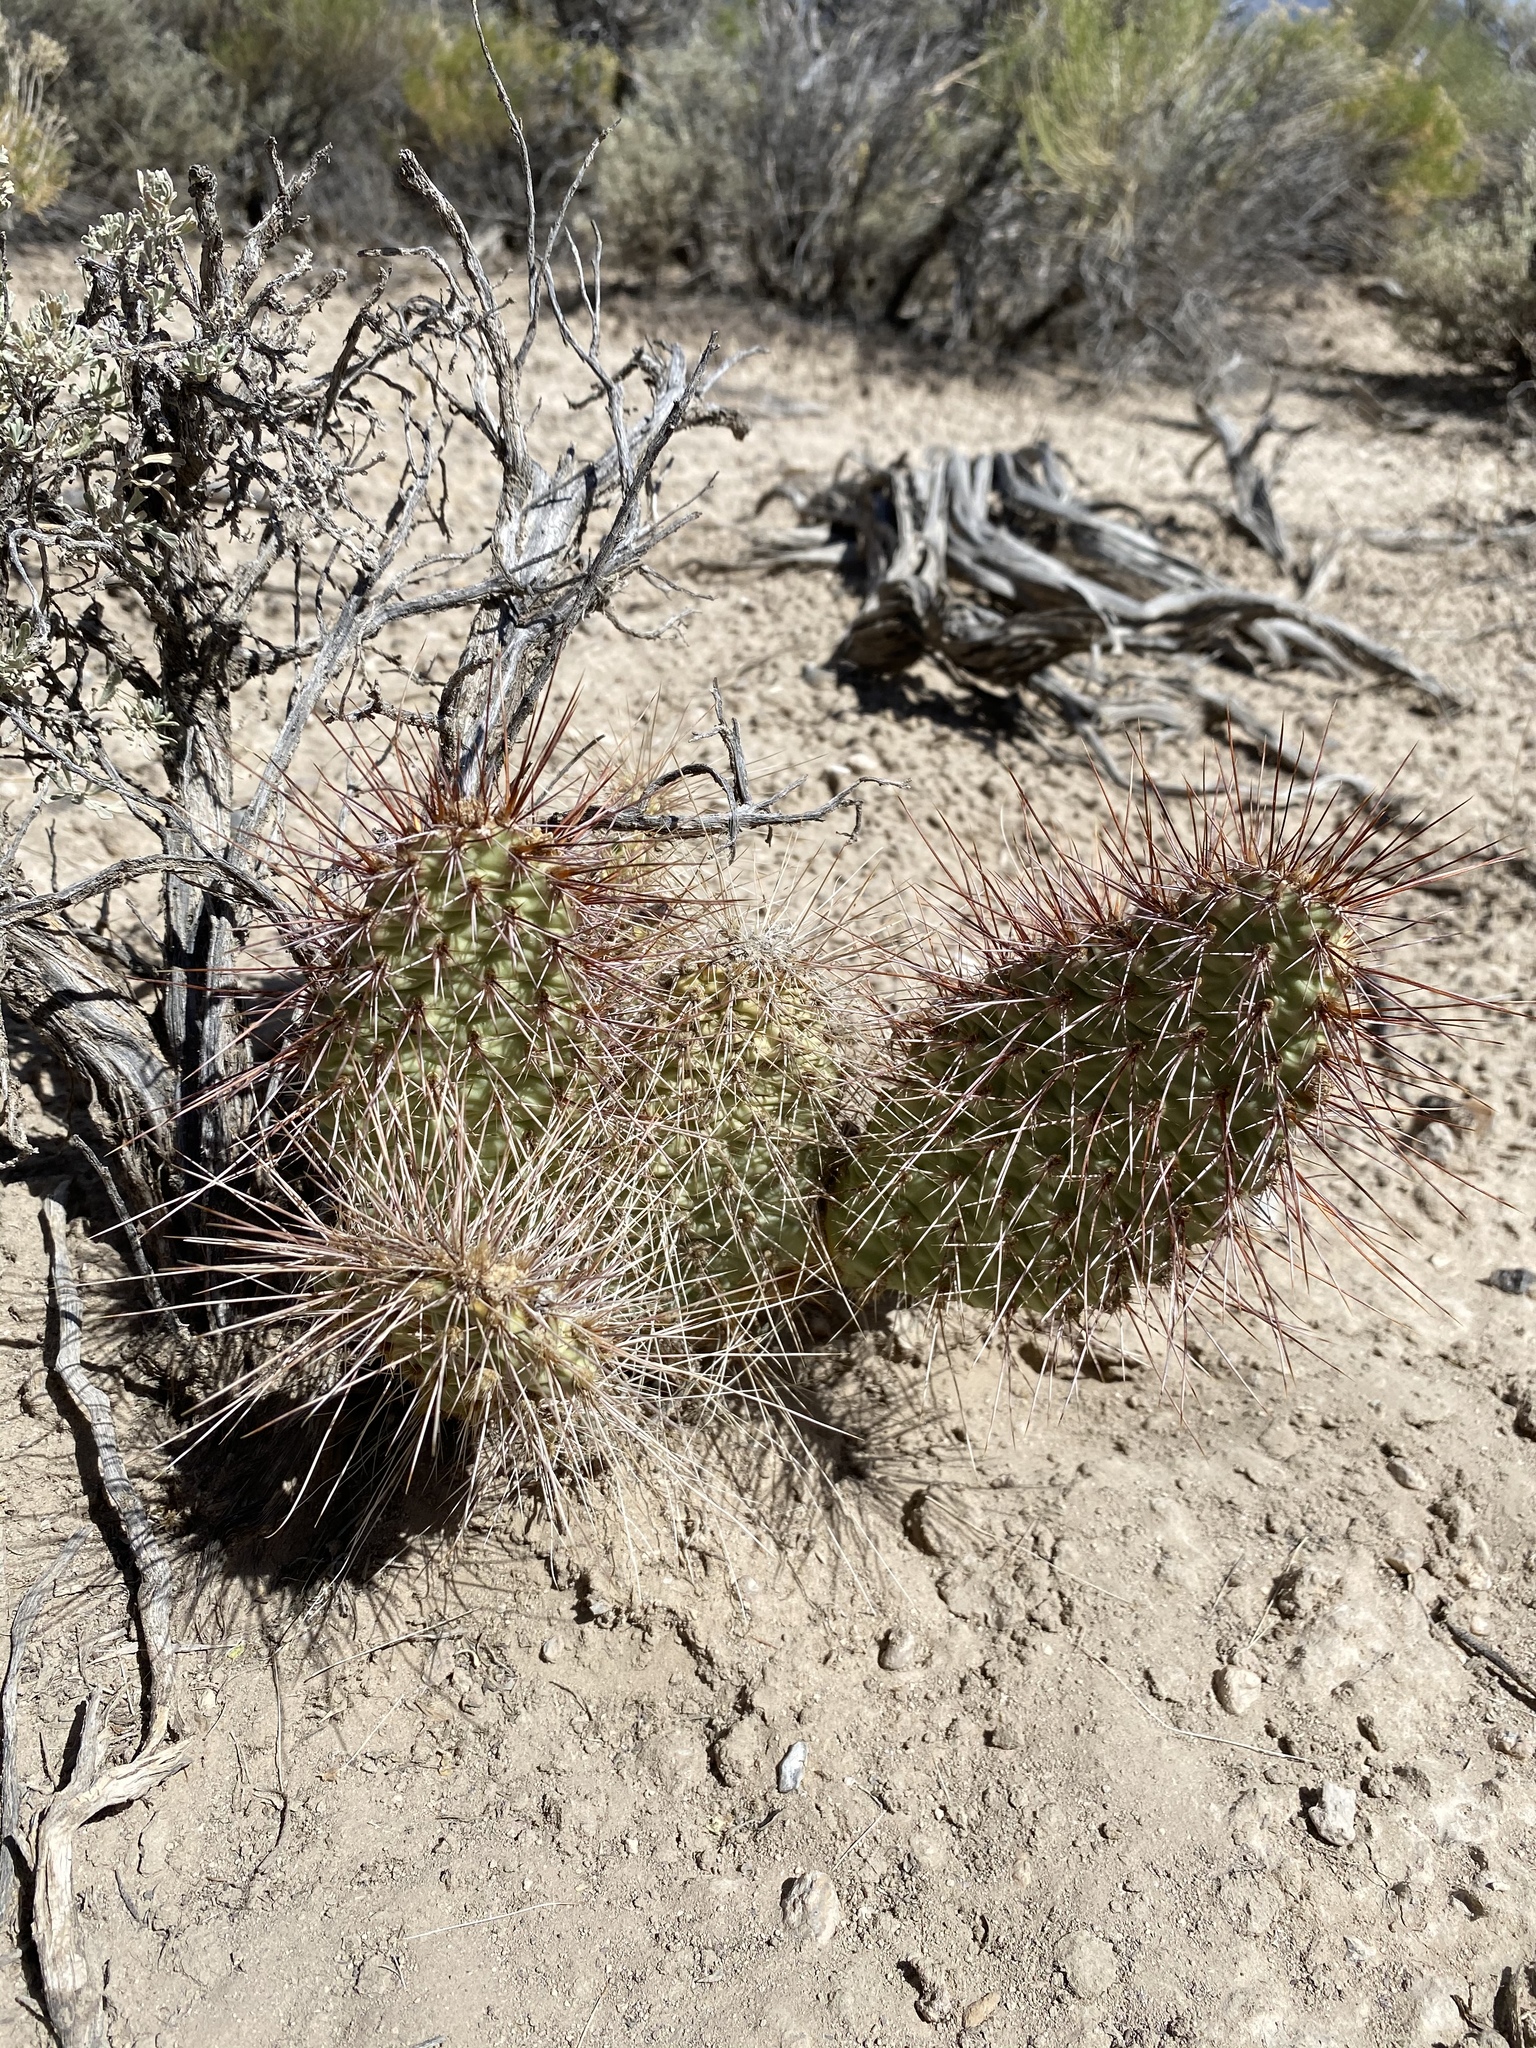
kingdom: Plantae
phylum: Tracheophyta
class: Magnoliopsida
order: Caryophyllales
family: Cactaceae
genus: Opuntia
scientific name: Opuntia polyacantha
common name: Plains prickly-pear
